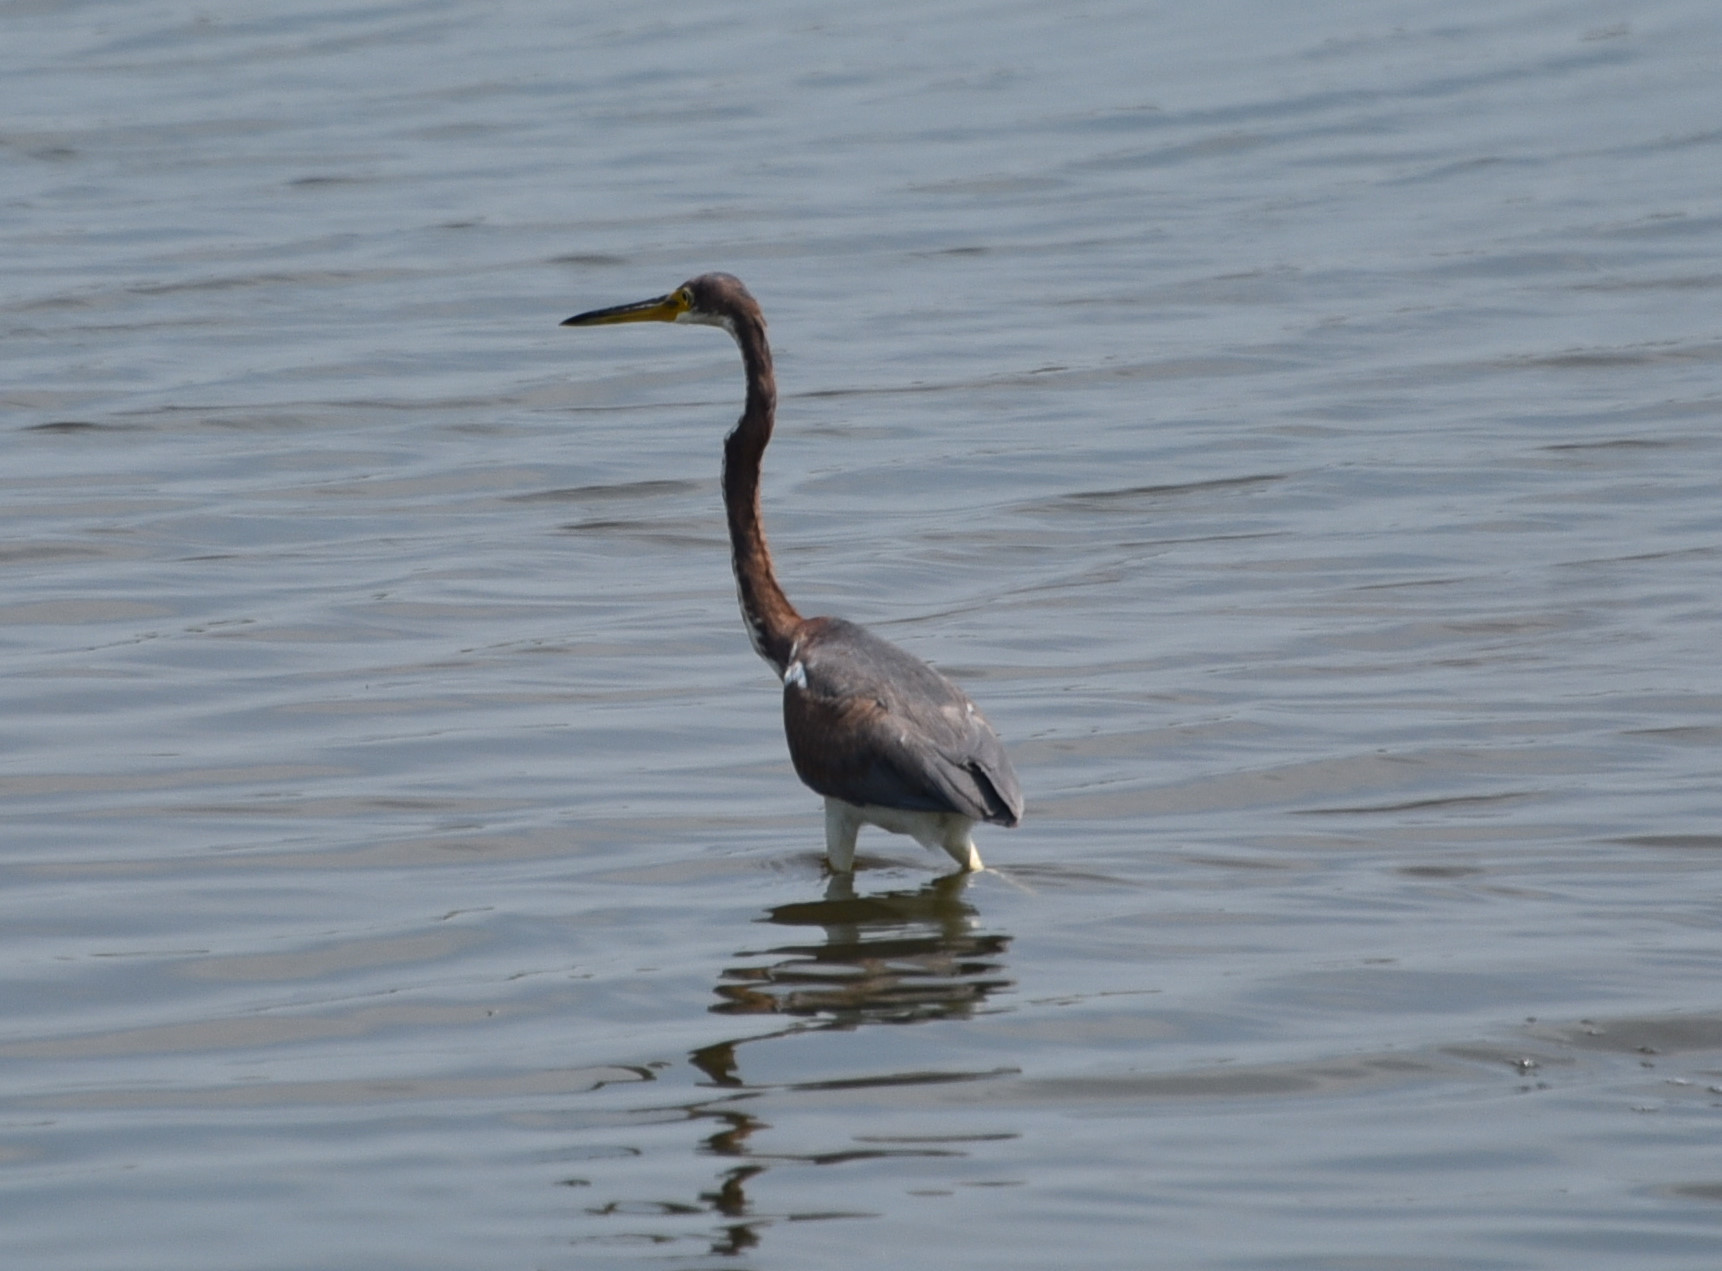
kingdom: Animalia
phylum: Chordata
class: Aves
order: Pelecaniformes
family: Ardeidae
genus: Egretta
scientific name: Egretta tricolor
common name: Tricolored heron
